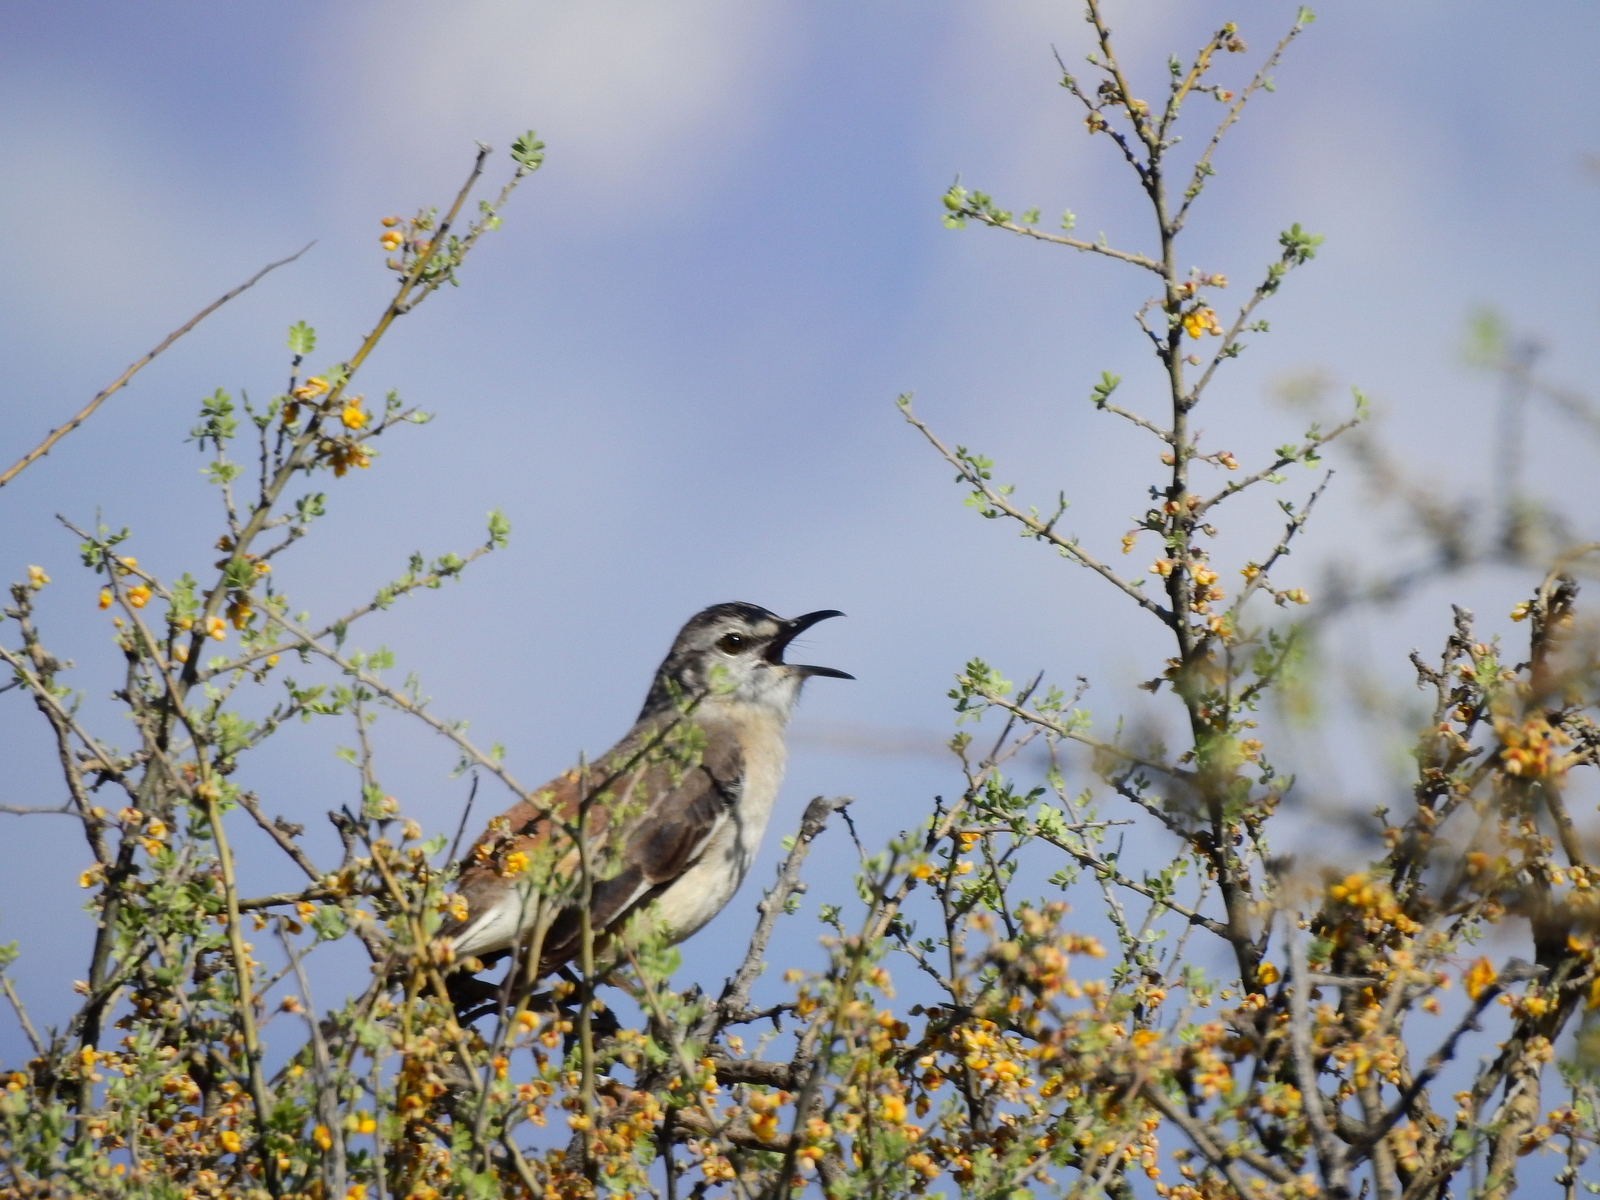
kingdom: Animalia
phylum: Chordata
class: Aves
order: Passeriformes
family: Mimidae
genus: Mimus
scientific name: Mimus triurus
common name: White-banded mockingbird
